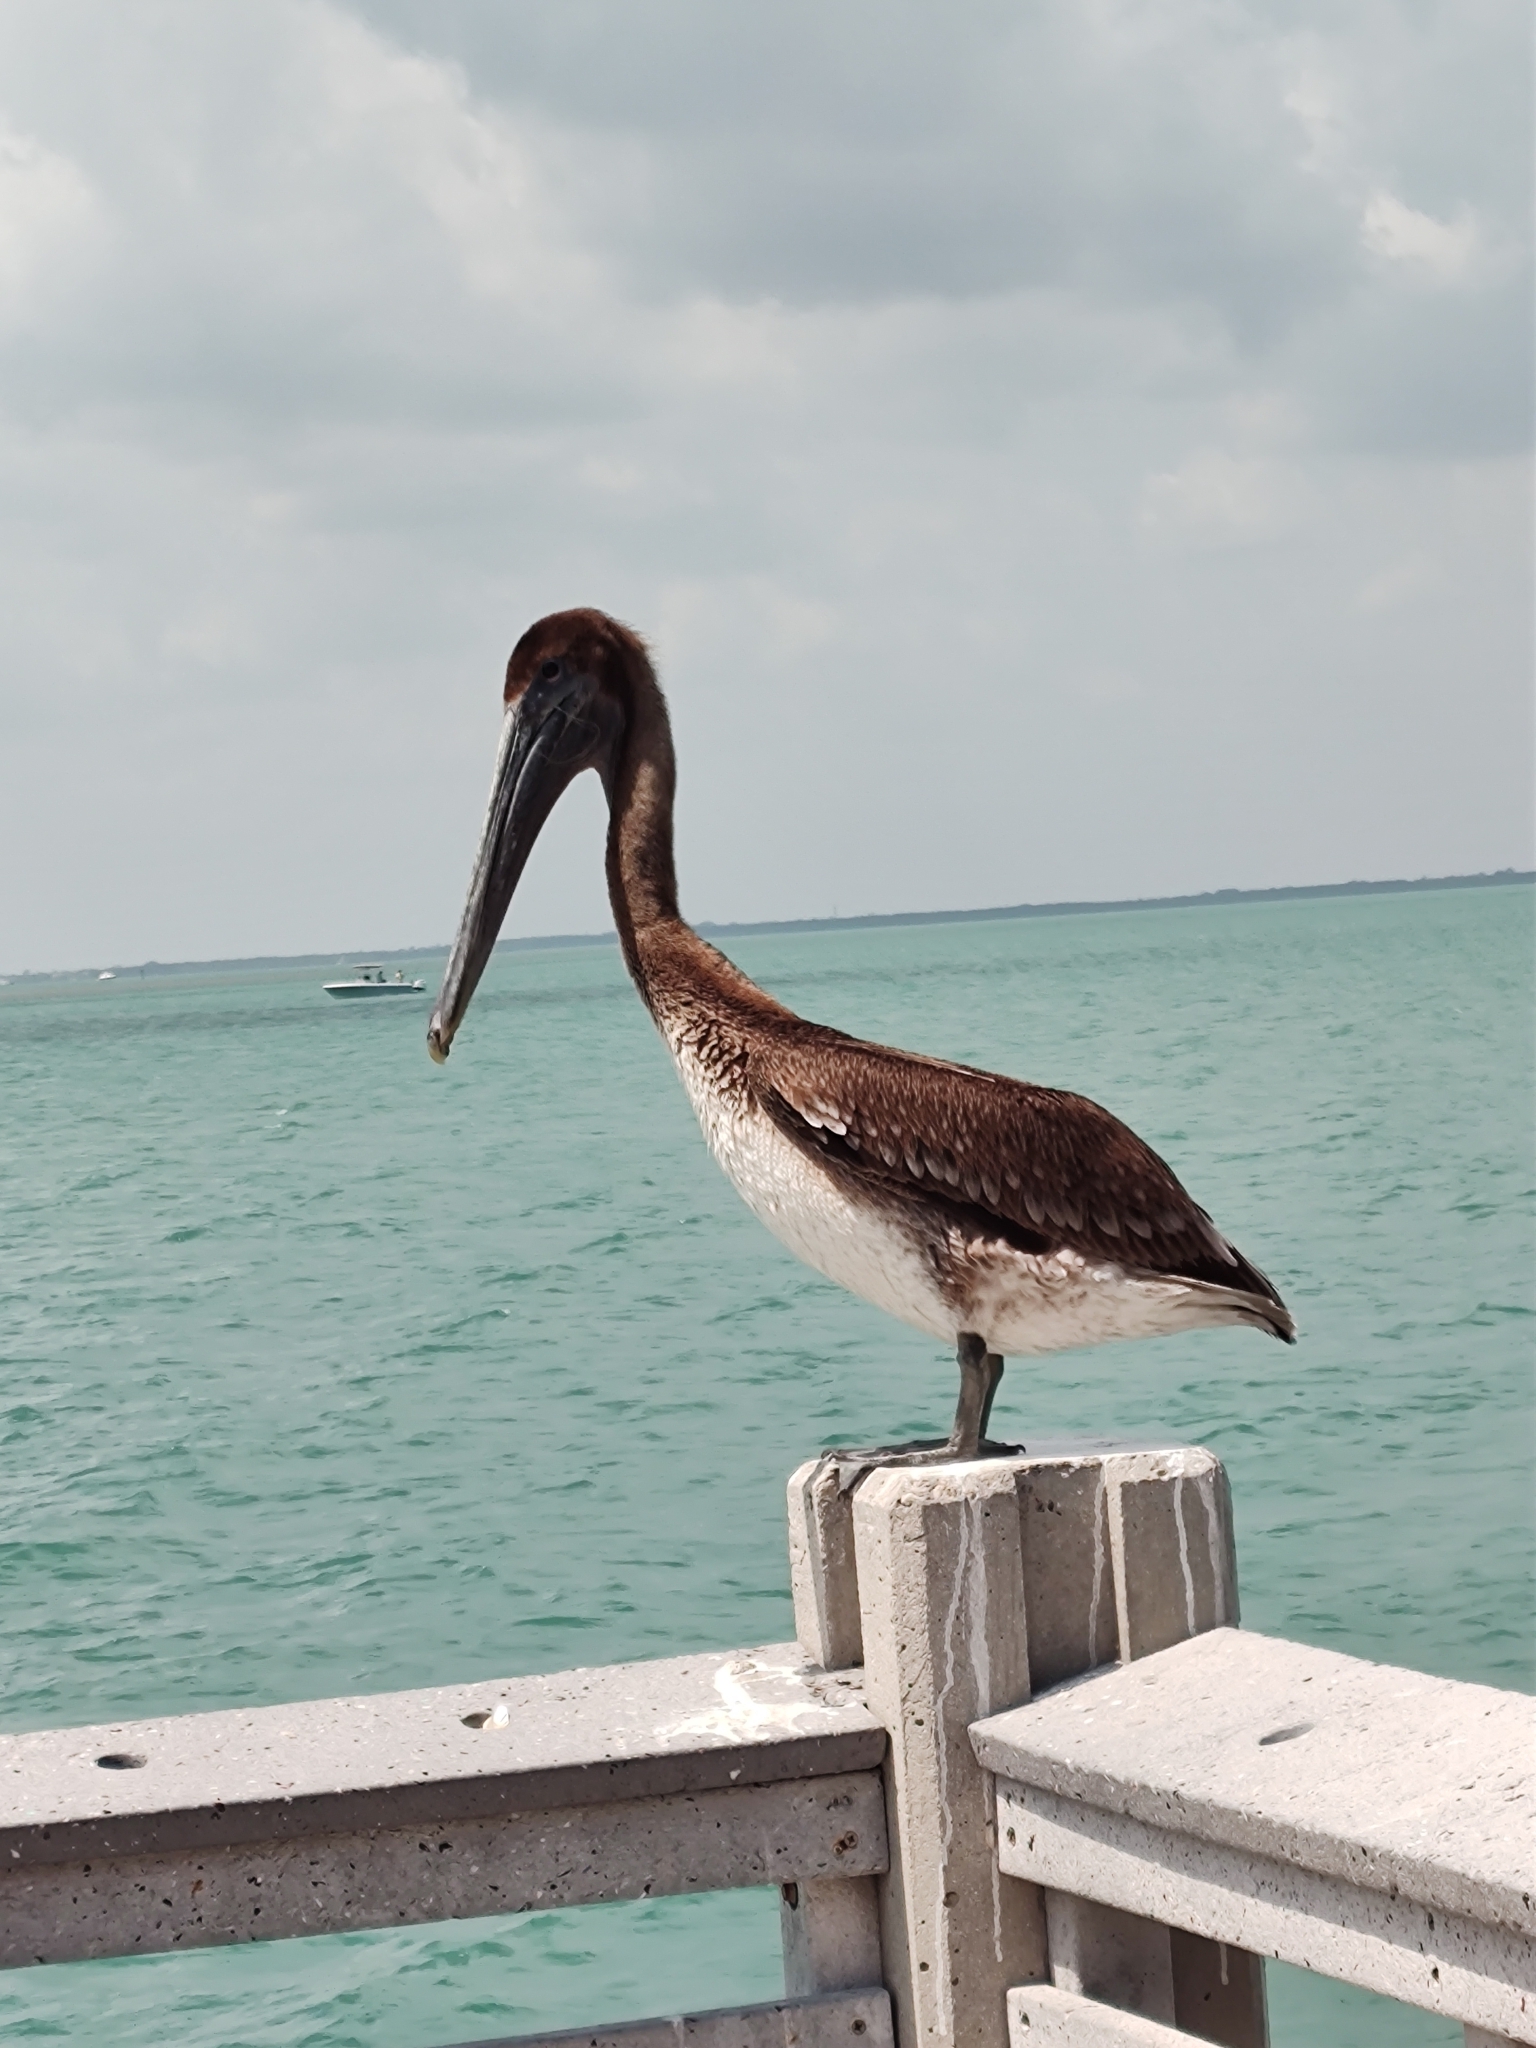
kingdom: Animalia
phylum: Chordata
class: Aves
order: Pelecaniformes
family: Pelecanidae
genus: Pelecanus
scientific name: Pelecanus occidentalis
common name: Brown pelican
